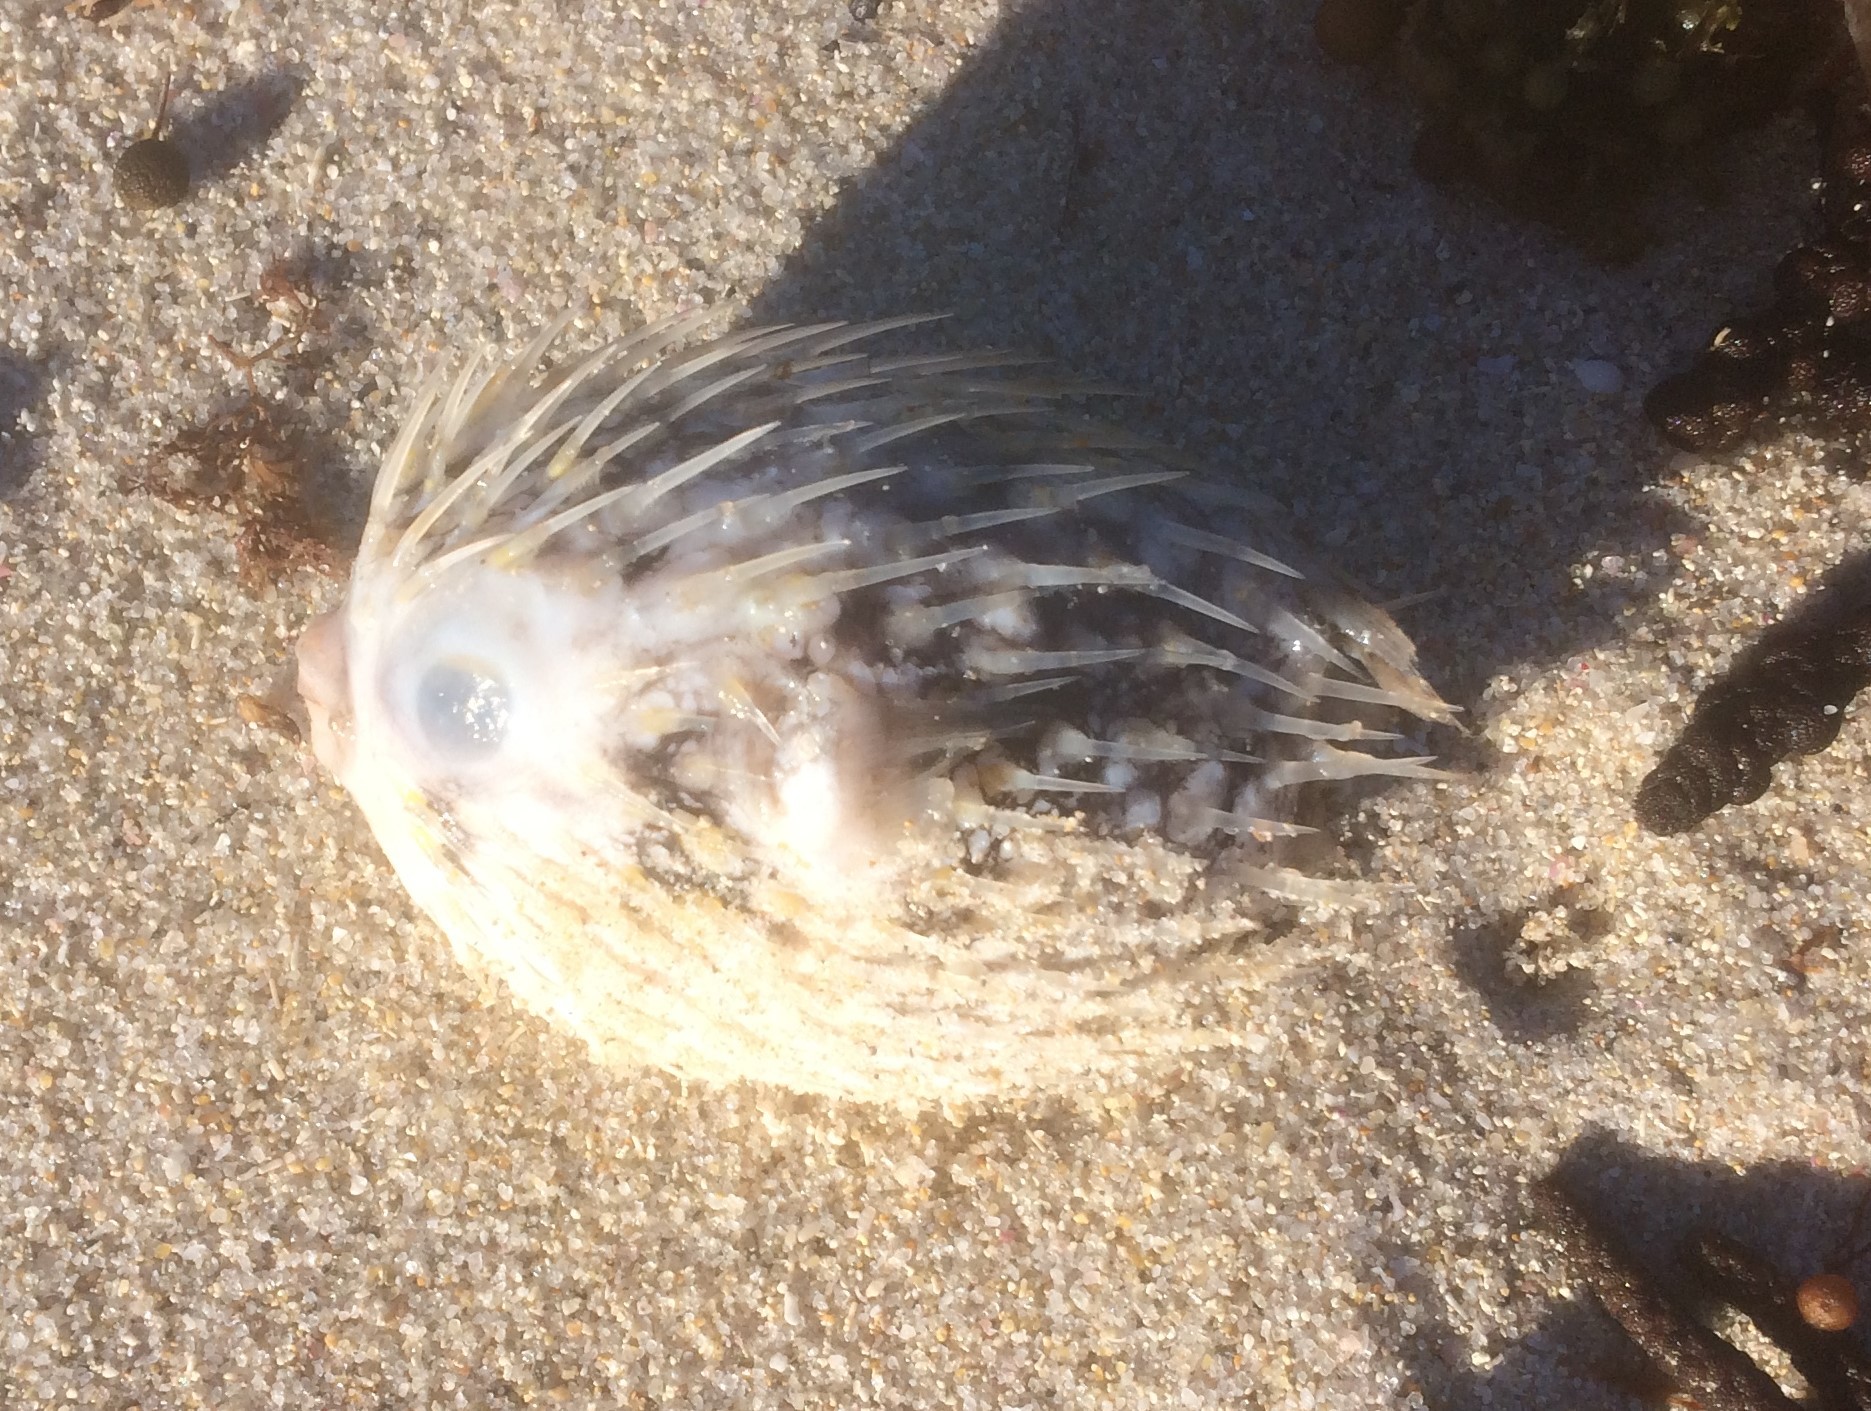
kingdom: Animalia
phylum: Chordata
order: Tetraodontiformes
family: Diodontidae
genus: Diodon
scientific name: Diodon nicthemerus
